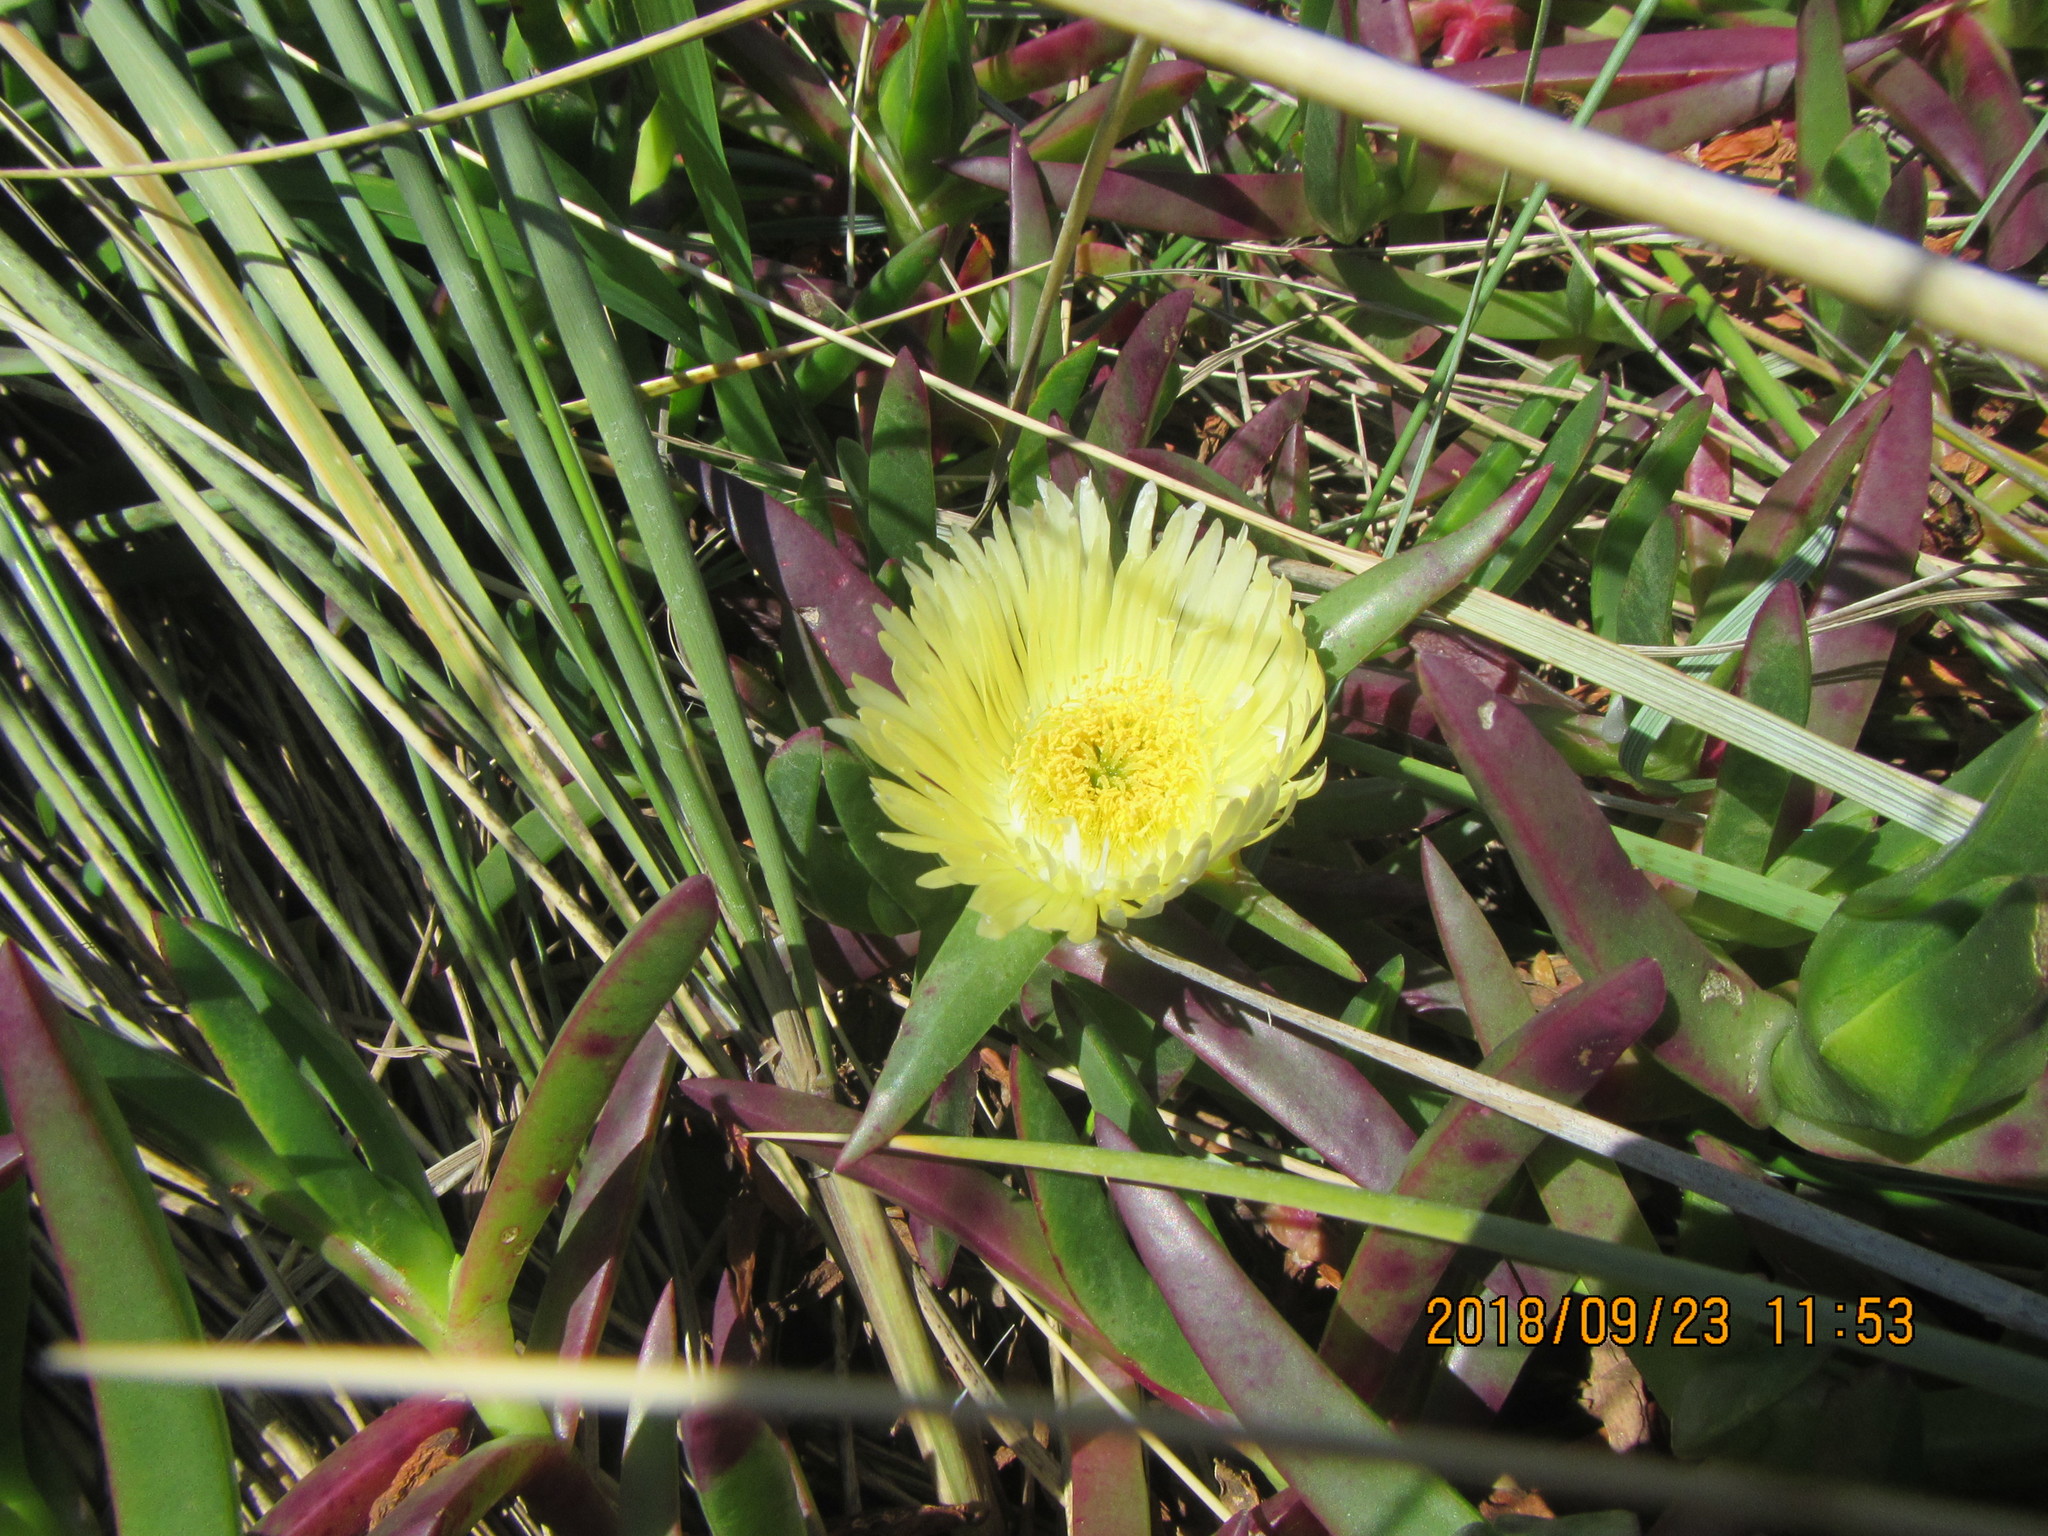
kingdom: Plantae
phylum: Tracheophyta
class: Magnoliopsida
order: Caryophyllales
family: Aizoaceae
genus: Carpobrotus
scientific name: Carpobrotus edulis
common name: Hottentot-fig
